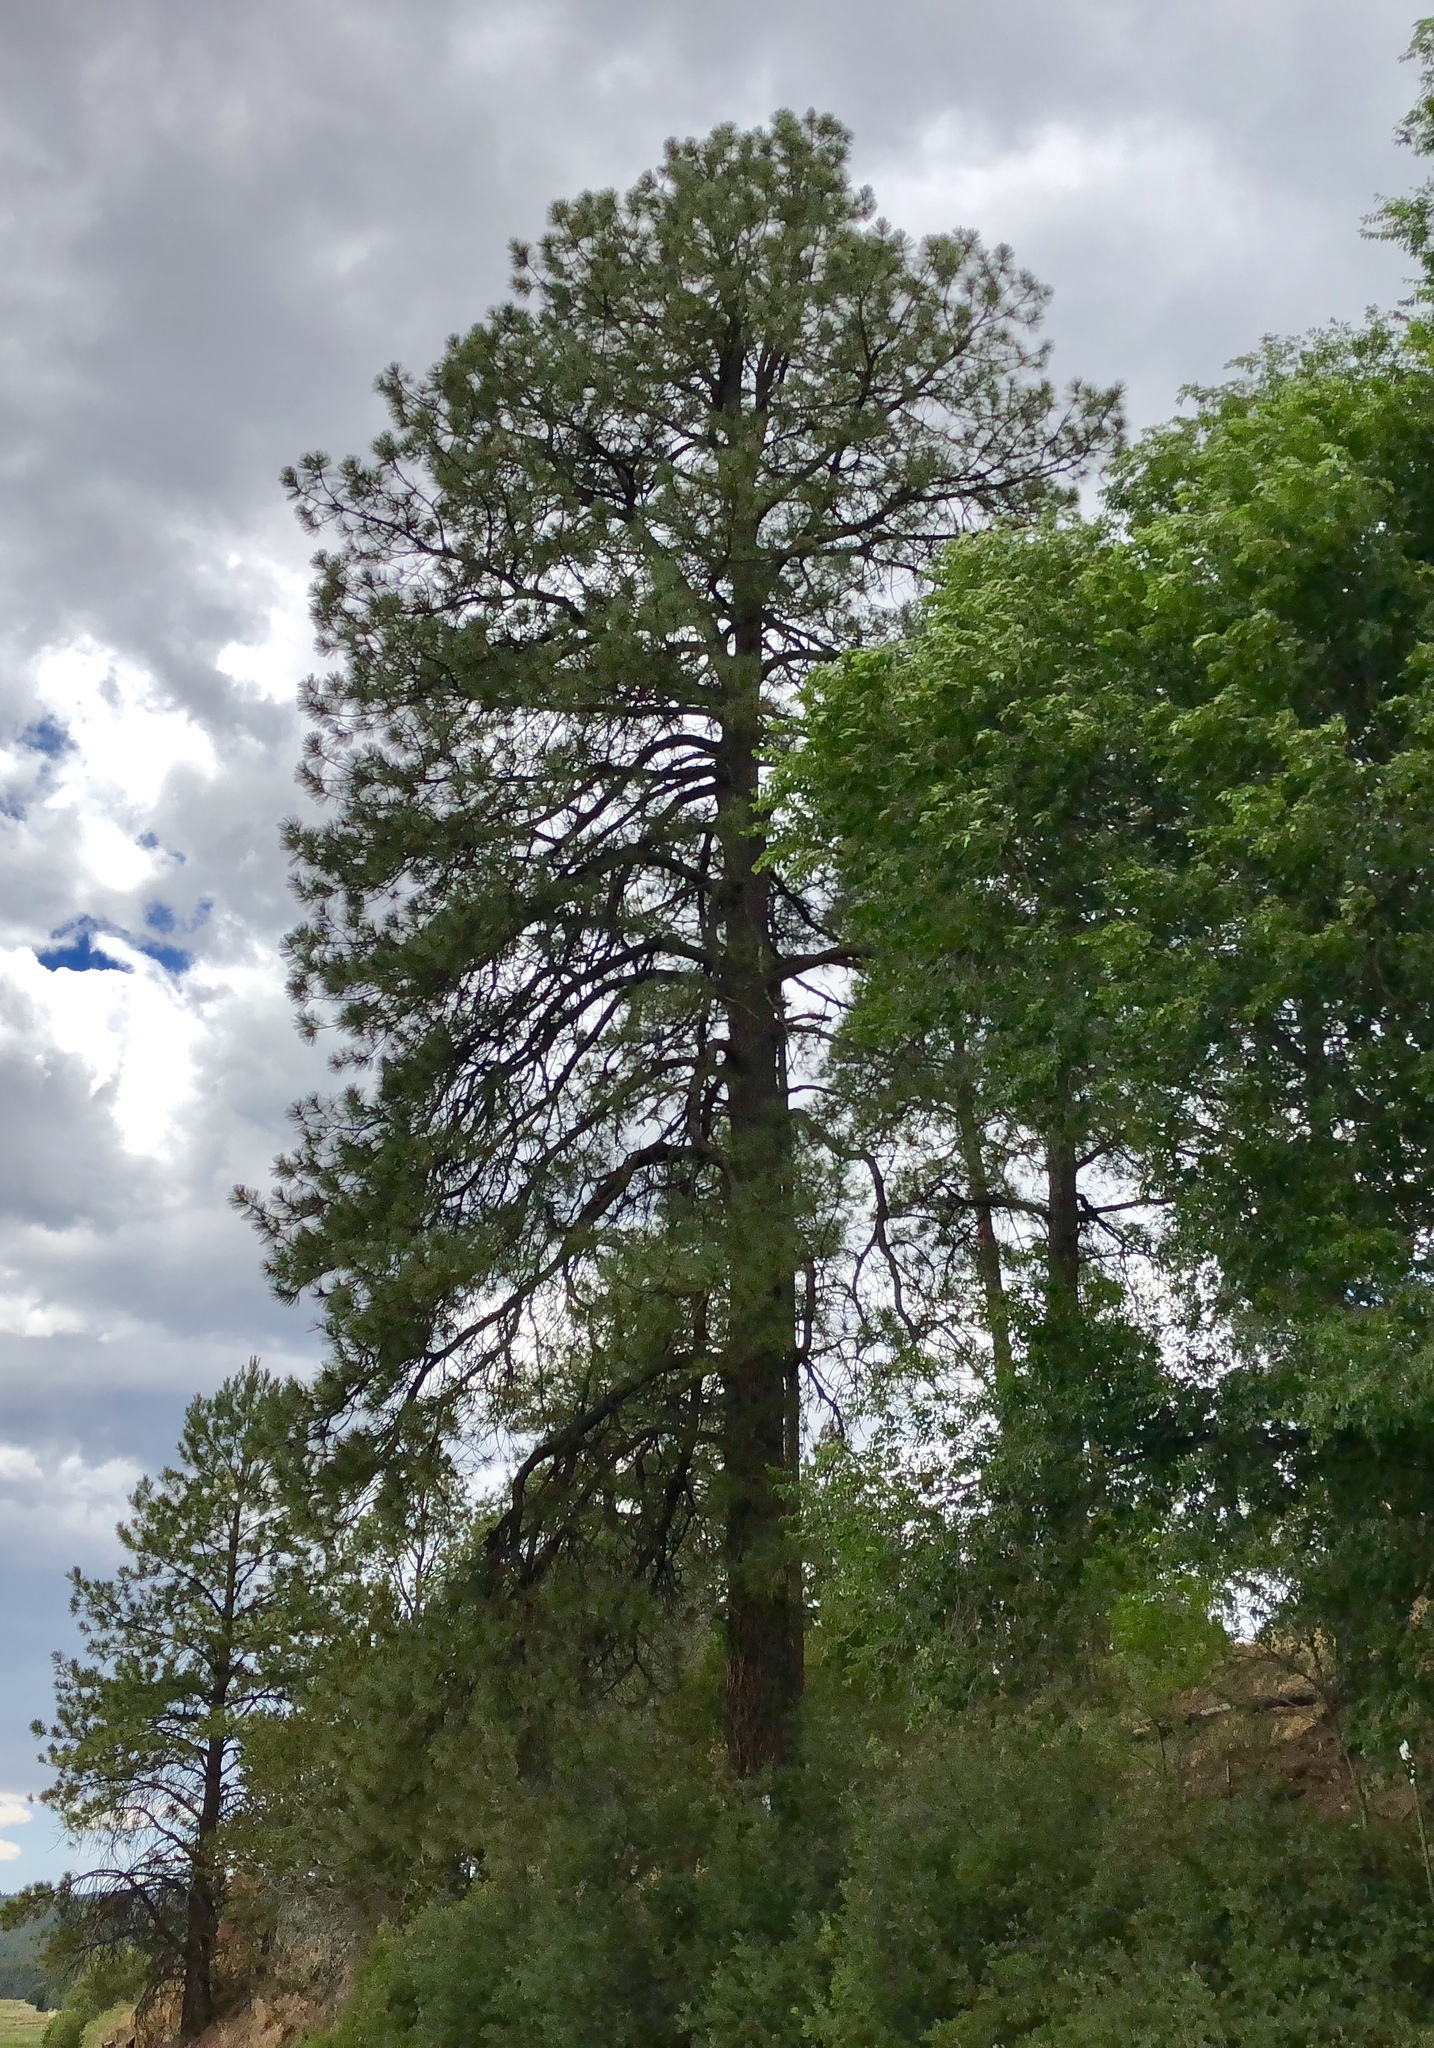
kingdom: Plantae
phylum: Tracheophyta
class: Pinopsida
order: Pinales
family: Pinaceae
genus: Pinus
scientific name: Pinus ponderosa
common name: Western yellow-pine
